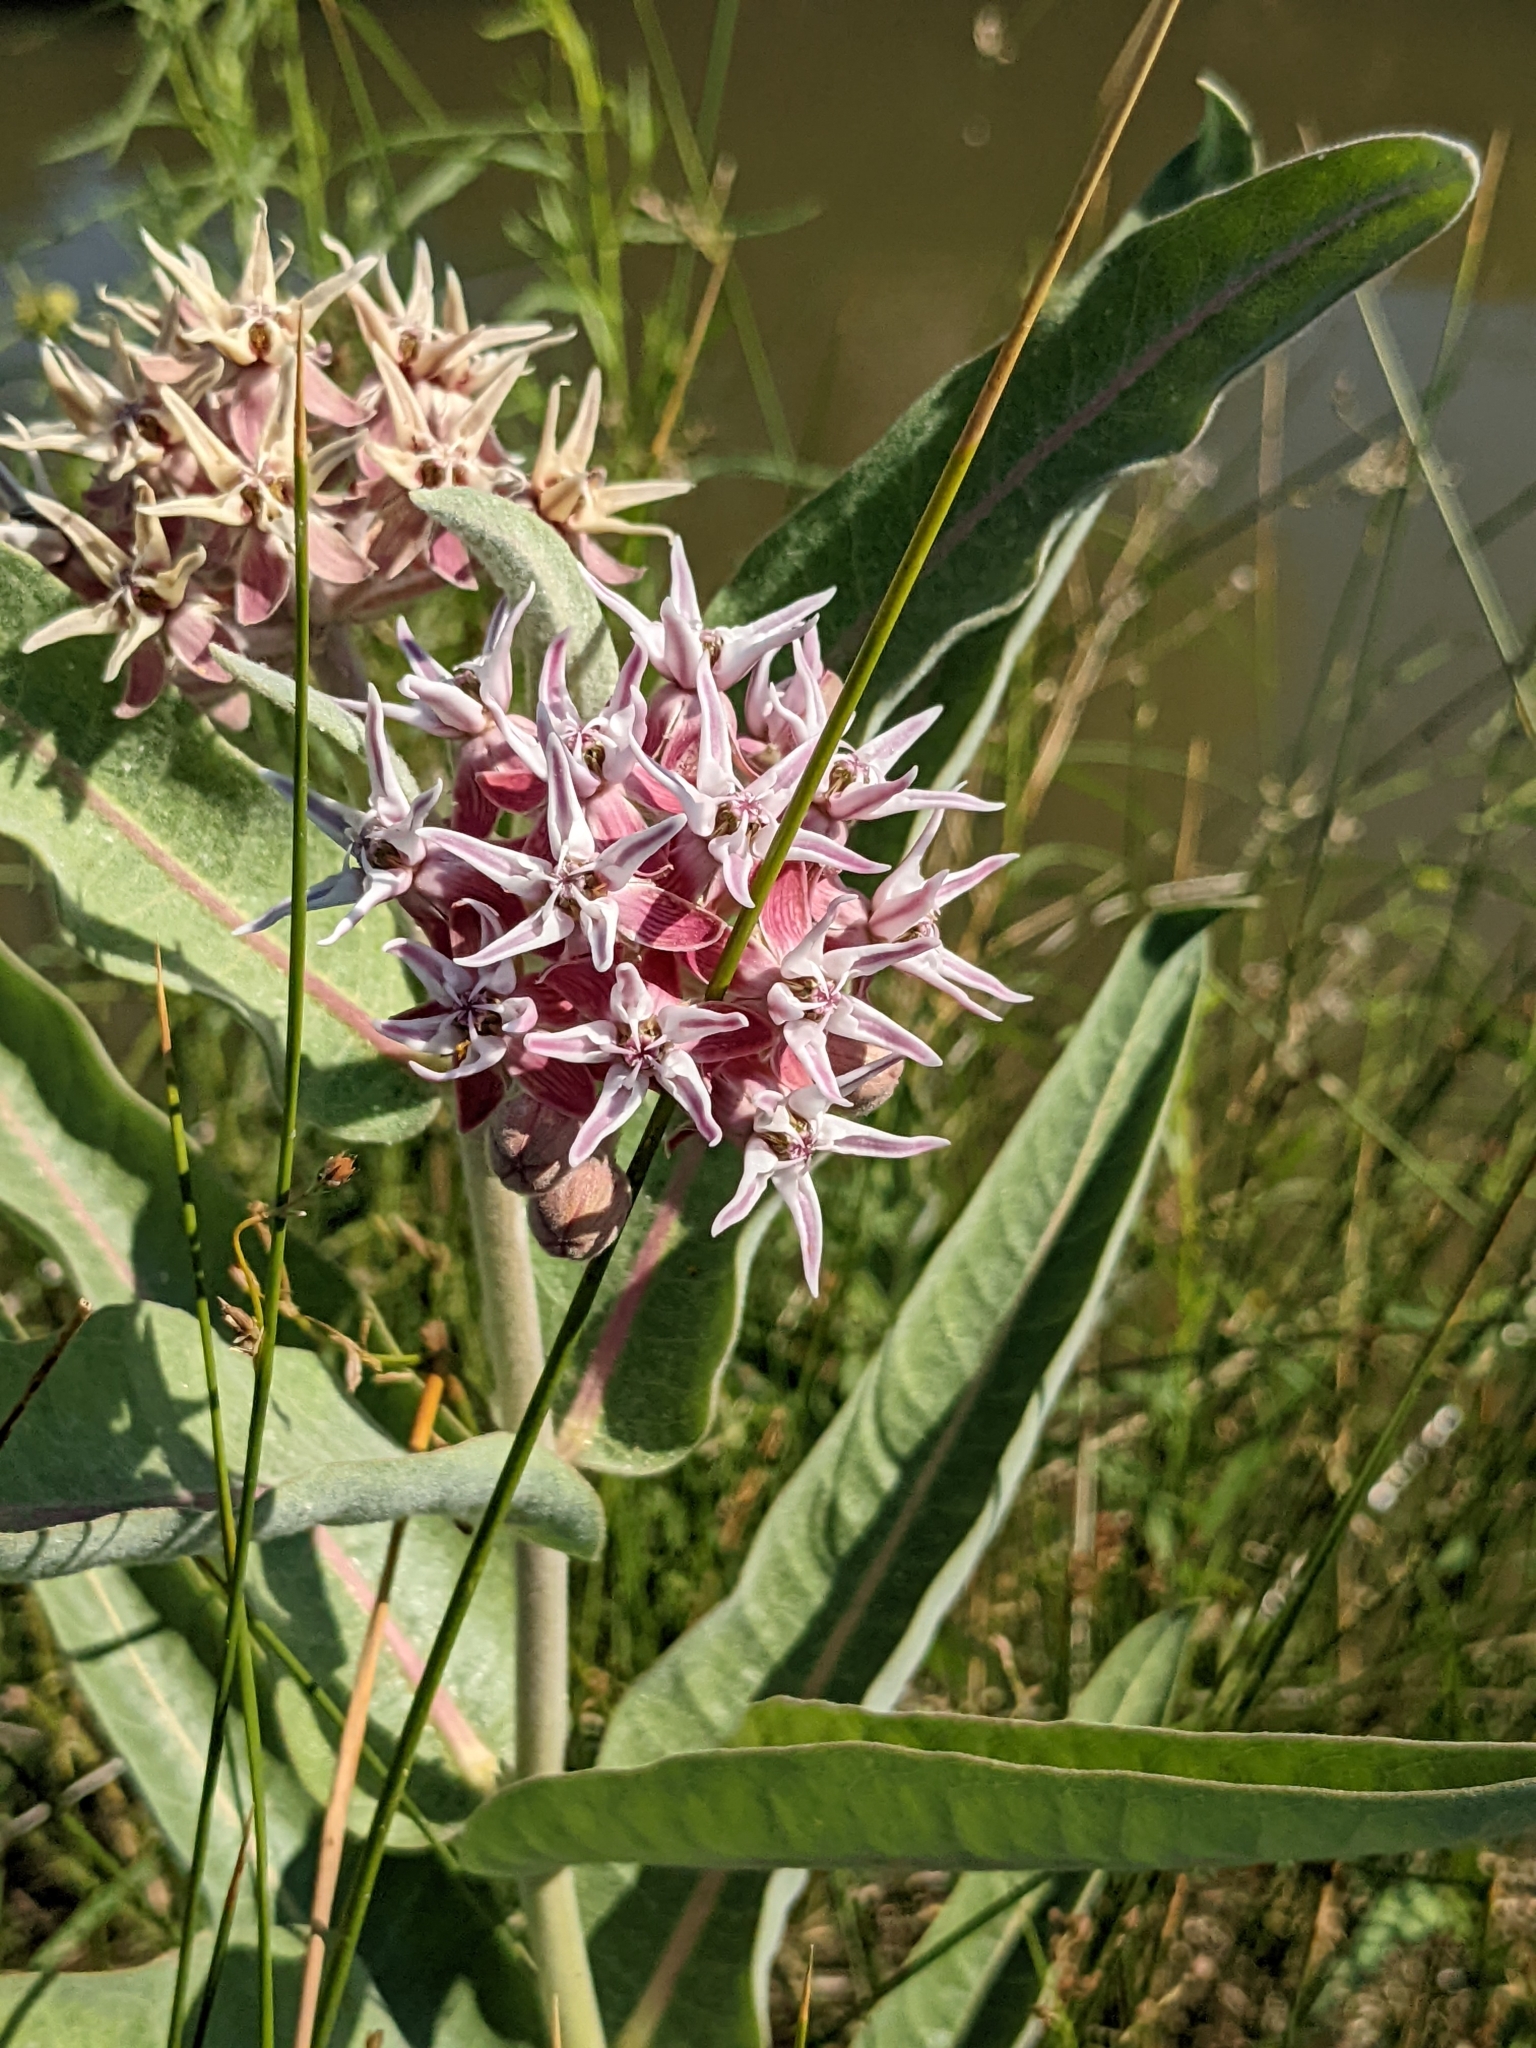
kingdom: Plantae
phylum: Tracheophyta
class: Magnoliopsida
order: Gentianales
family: Apocynaceae
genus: Asclepias
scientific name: Asclepias speciosa
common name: Showy milkweed
